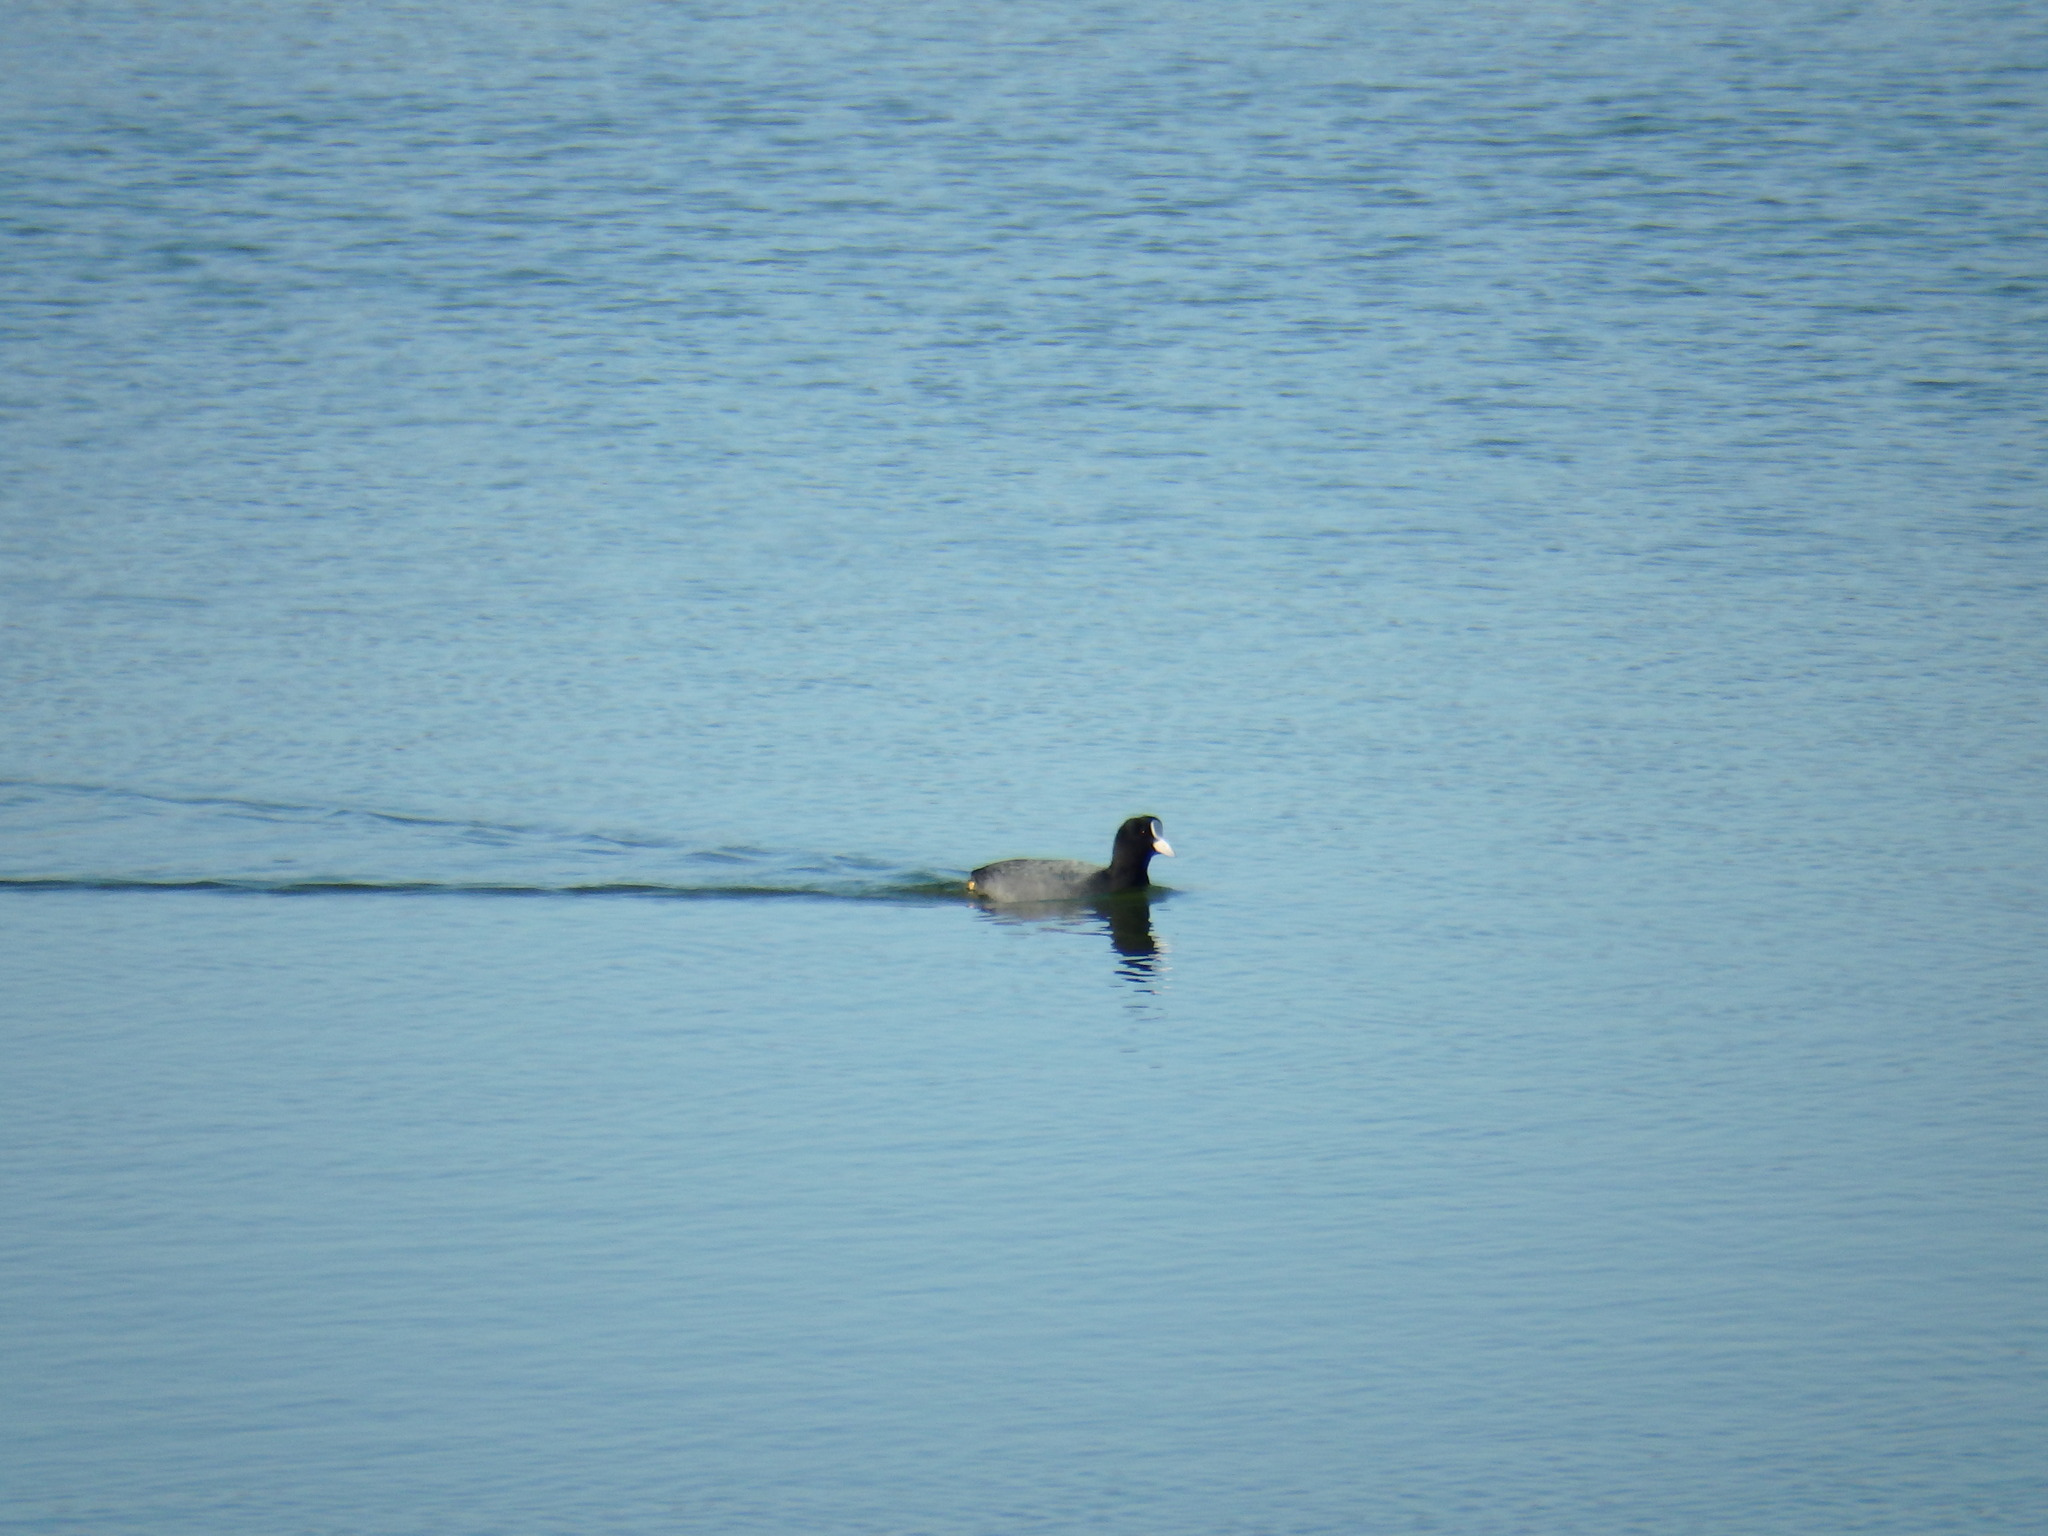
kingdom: Animalia
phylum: Chordata
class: Aves
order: Gruiformes
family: Rallidae
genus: Fulica
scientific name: Fulica atra
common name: Eurasian coot
